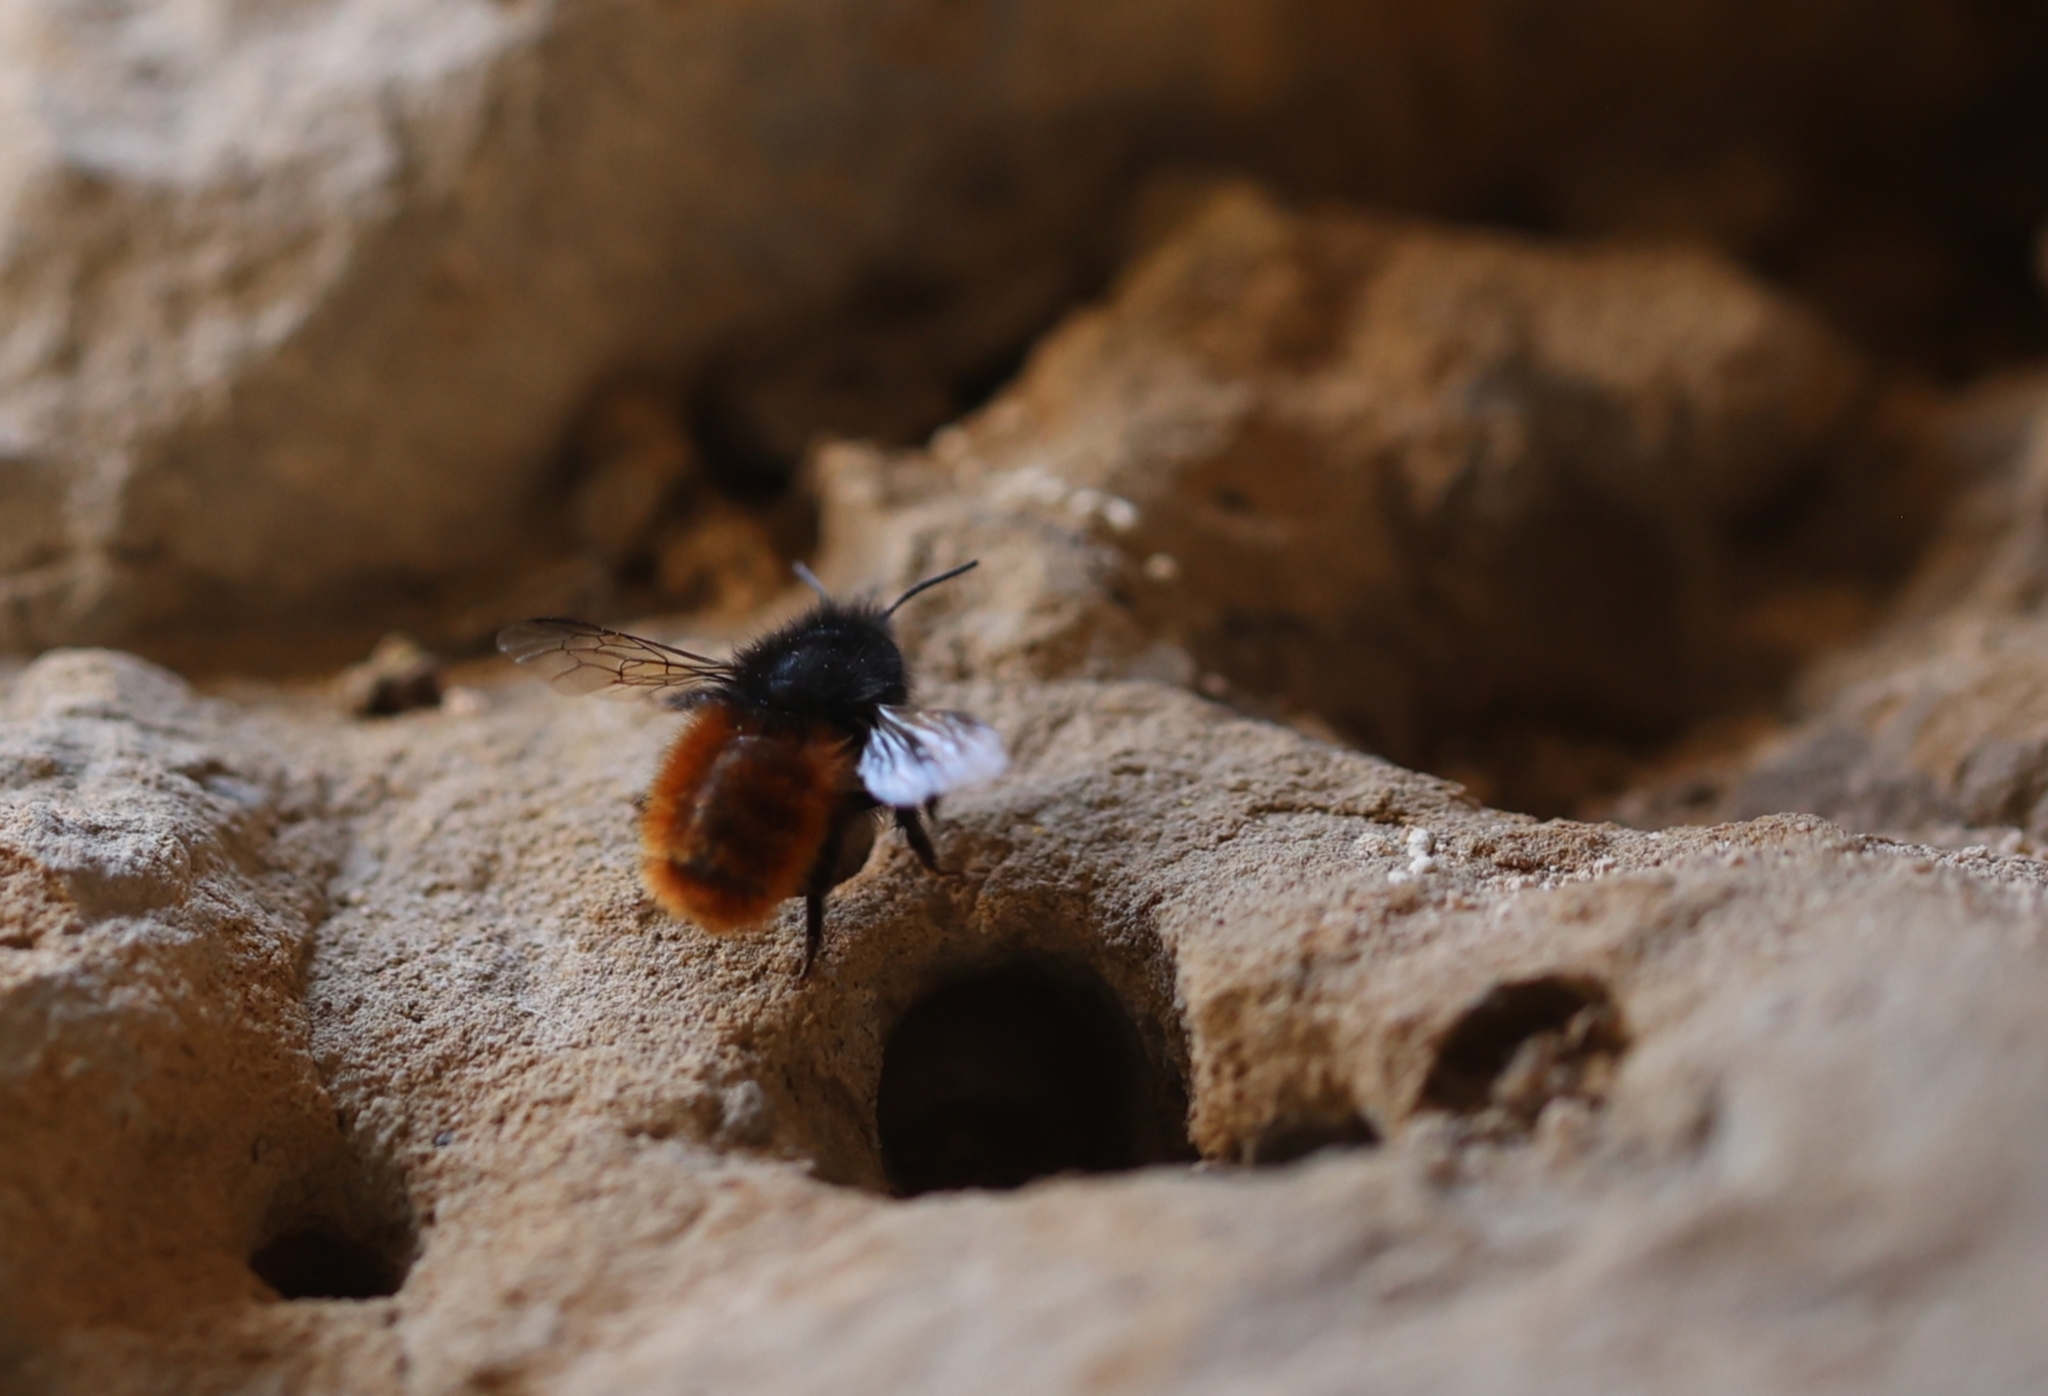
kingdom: Animalia
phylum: Arthropoda
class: Insecta
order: Hymenoptera
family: Megachilidae
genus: Osmia
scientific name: Osmia cornuta
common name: Mason bee
